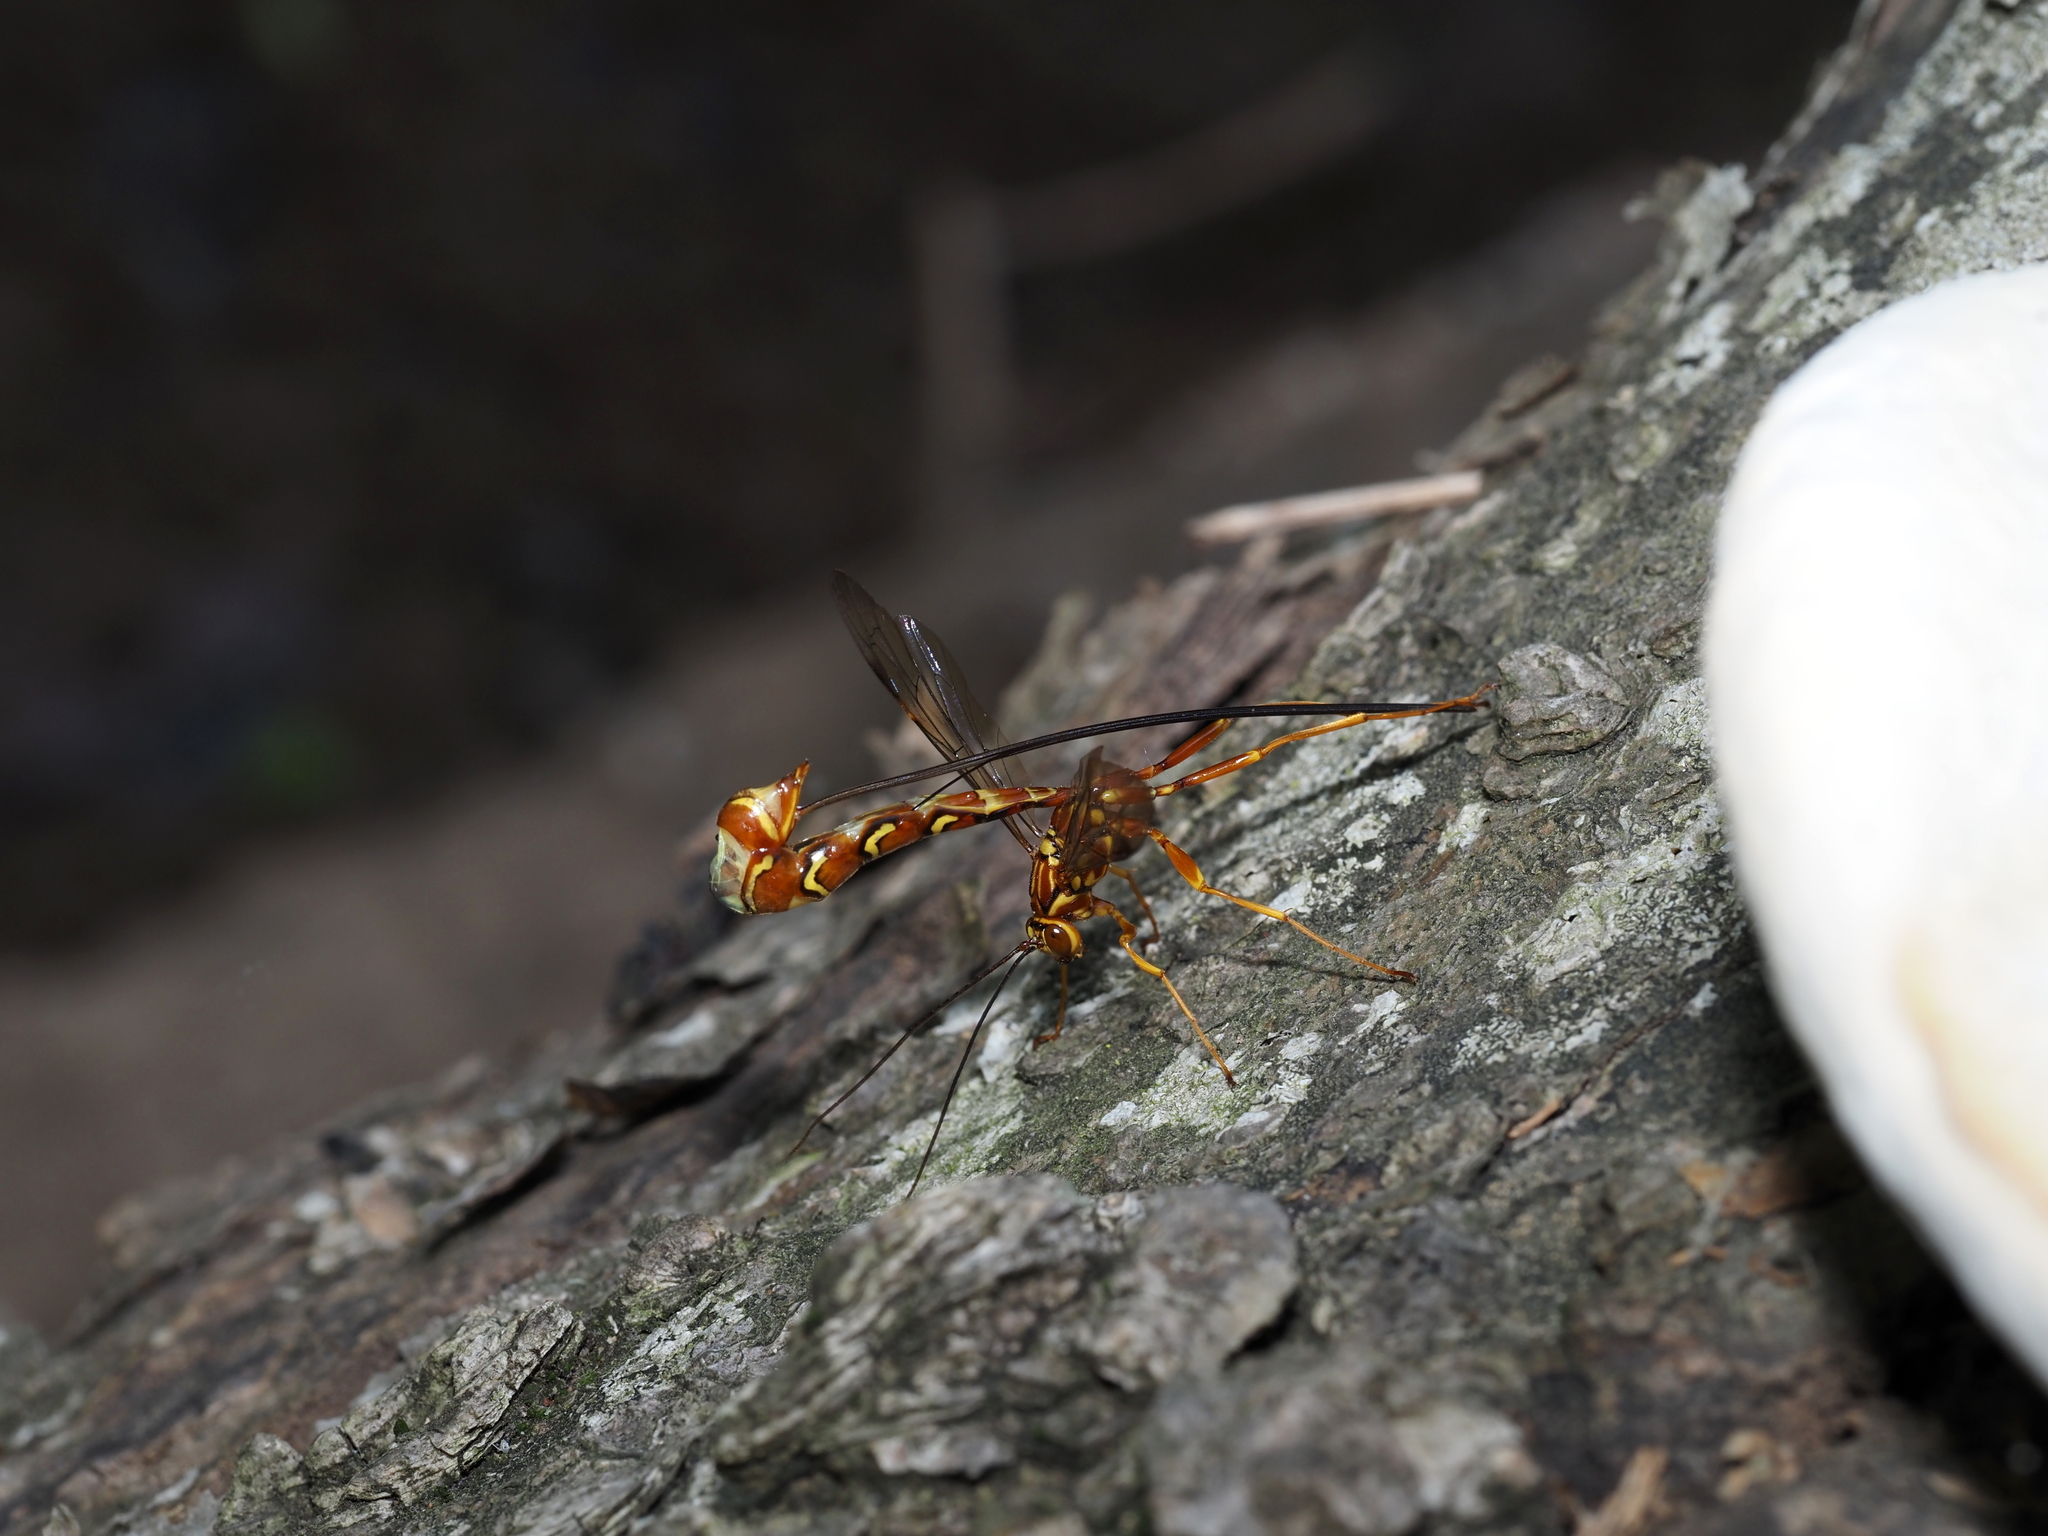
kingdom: Animalia
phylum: Arthropoda
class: Insecta
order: Hymenoptera
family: Ichneumonidae
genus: Megarhyssa
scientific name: Megarhyssa greenei
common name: Greene's giant ichneumonid wasp
